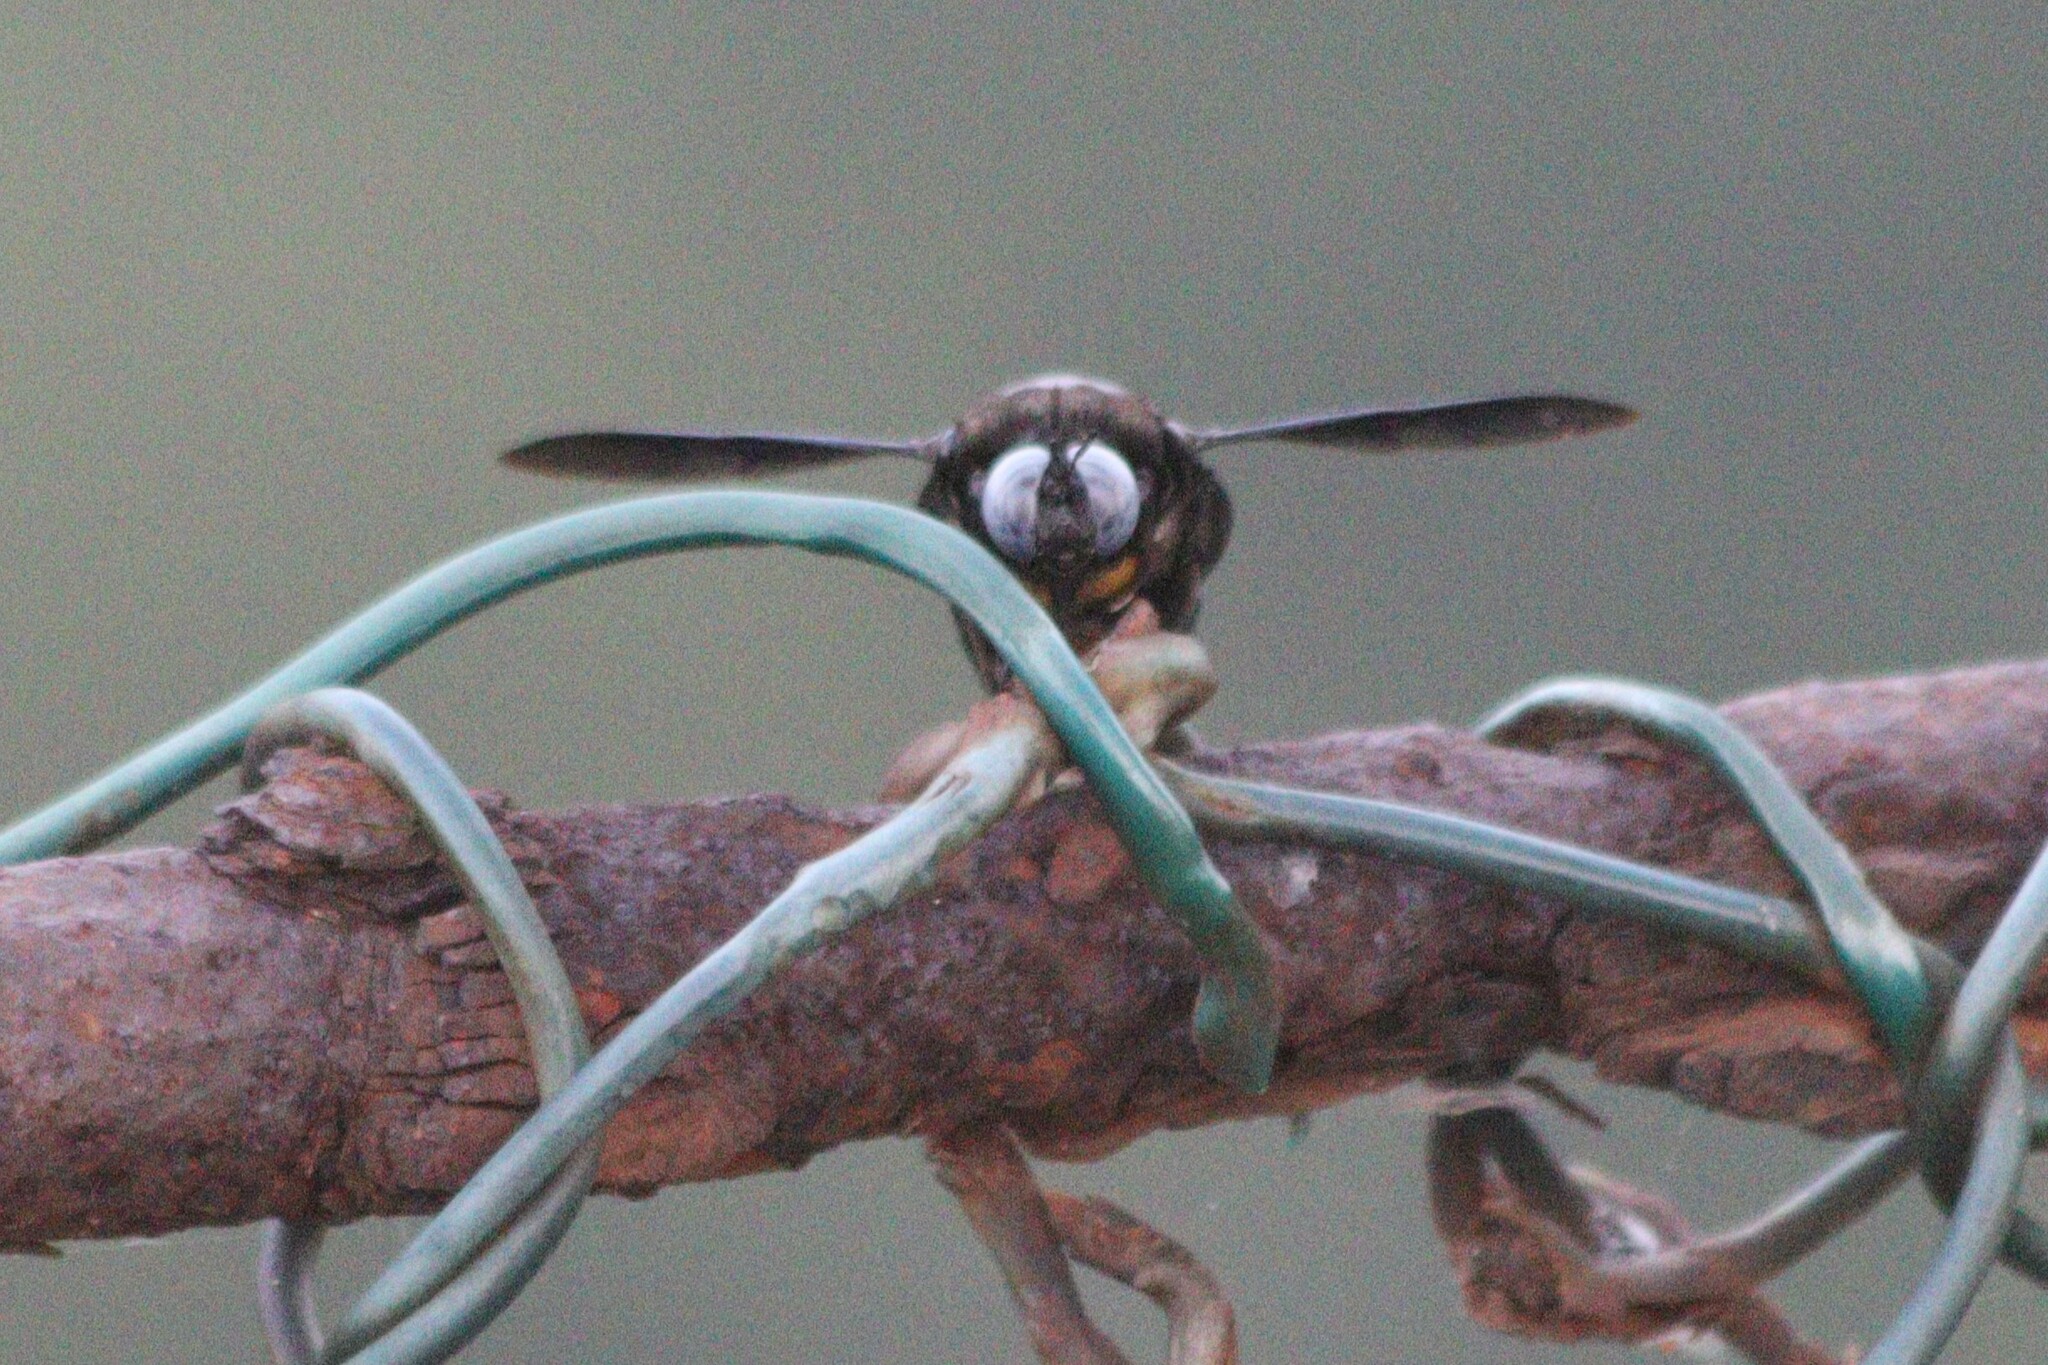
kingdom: Animalia
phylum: Arthropoda
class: Insecta
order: Hymenoptera
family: Apidae
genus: Xylocopa
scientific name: Xylocopa tenuiscapa
